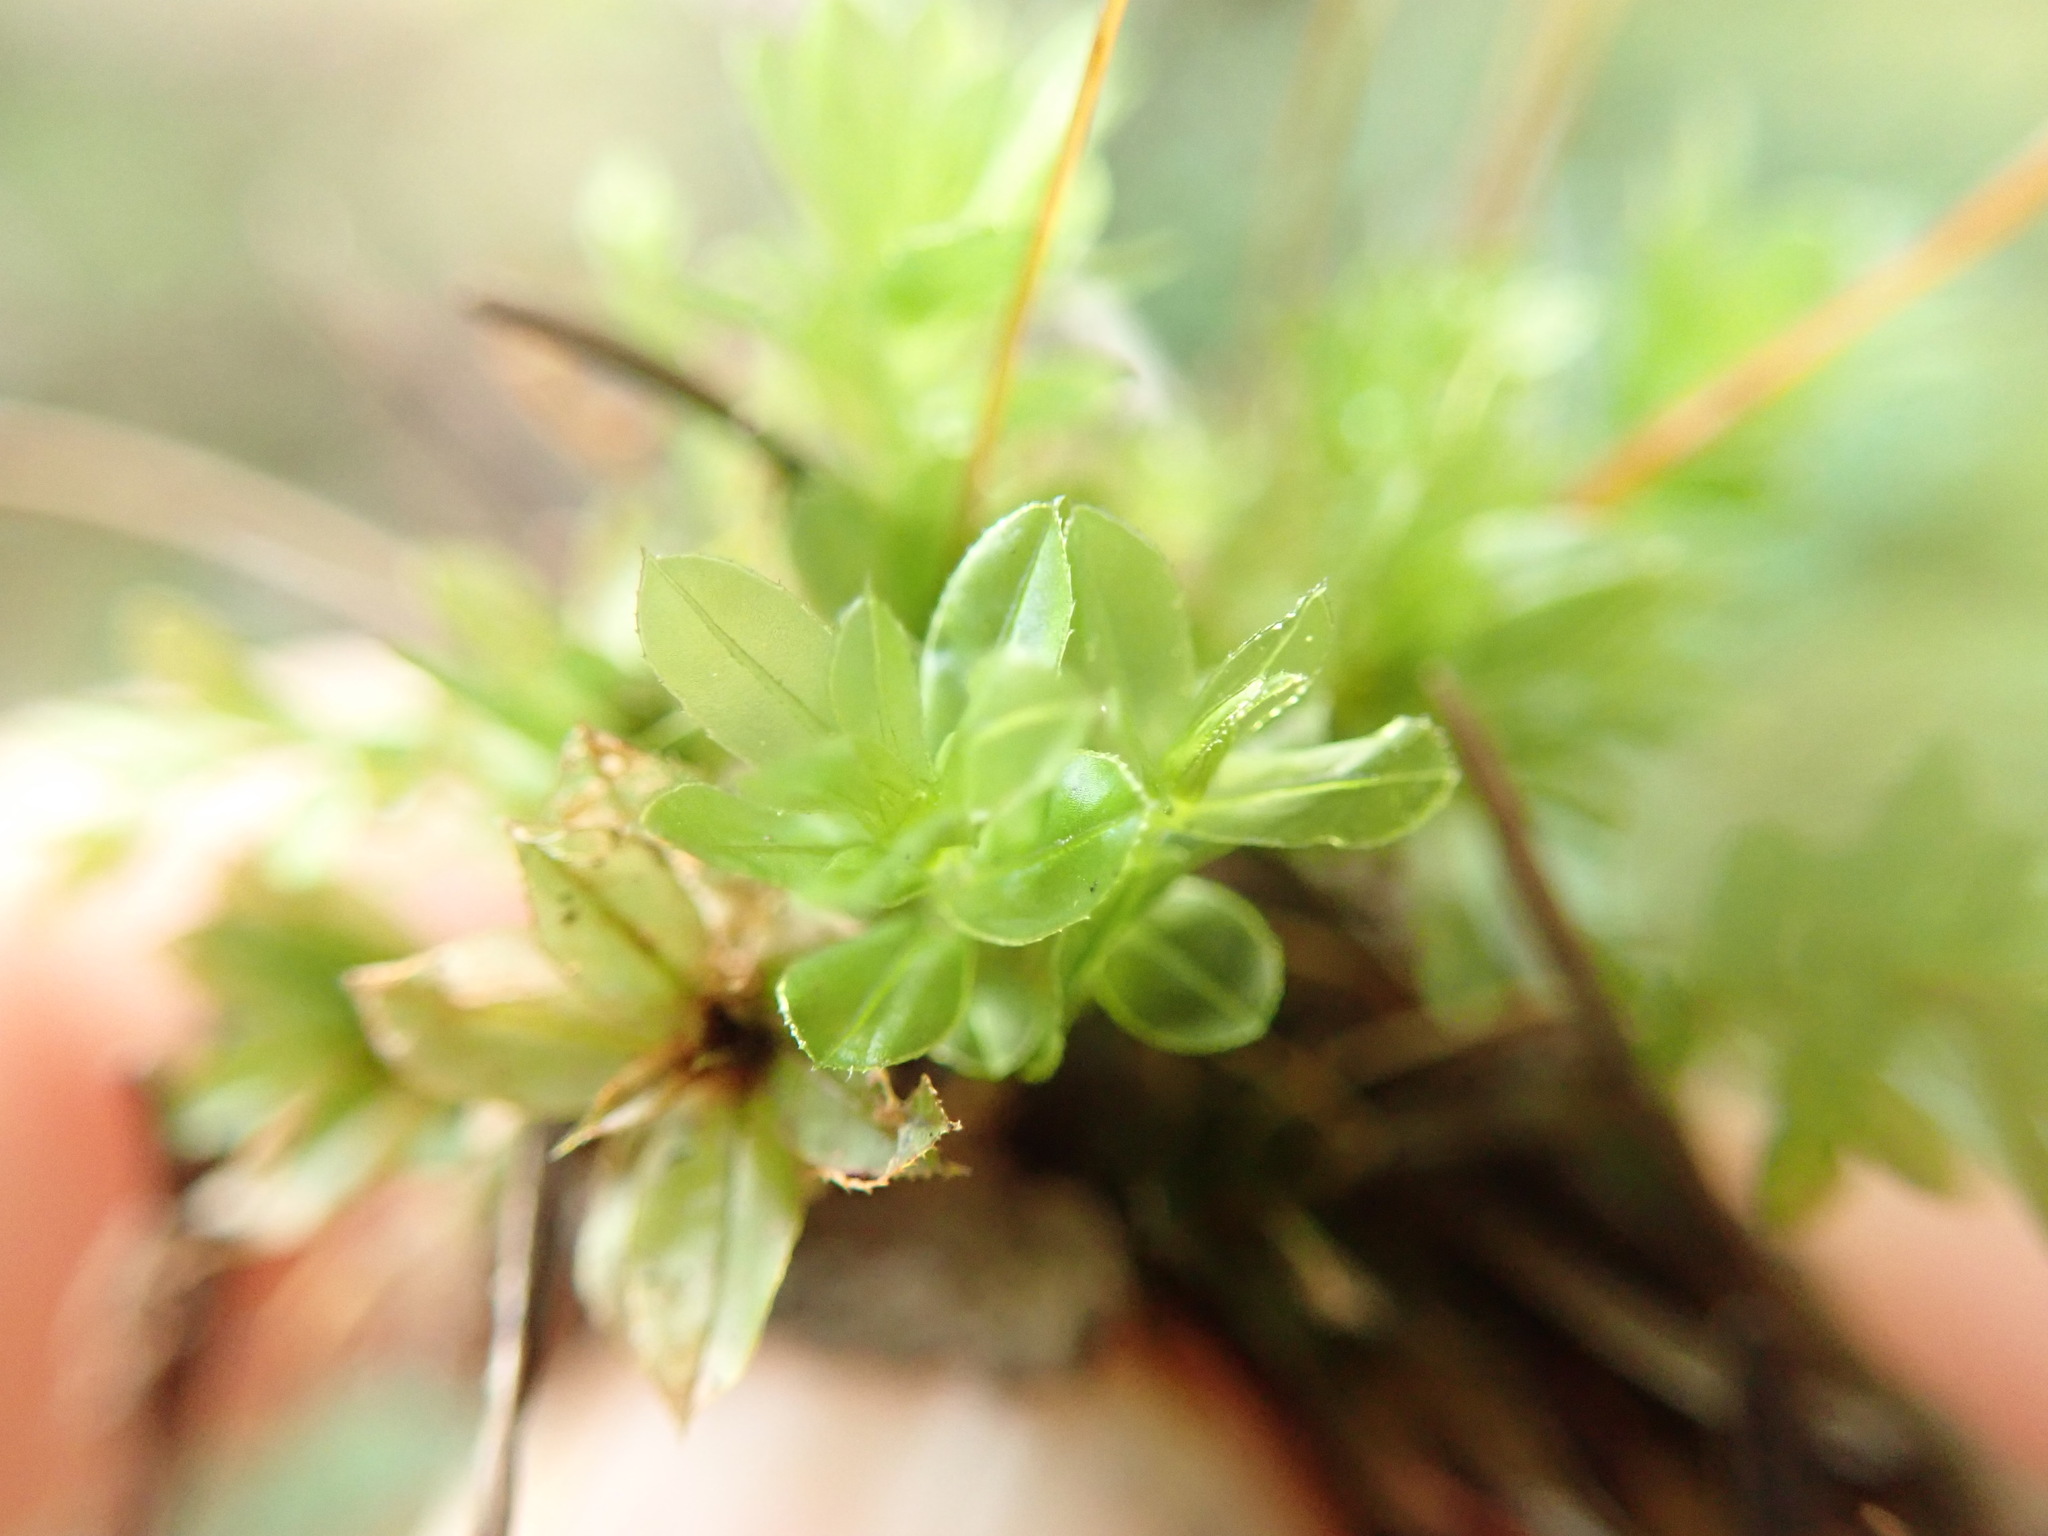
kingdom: Plantae
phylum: Bryophyta
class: Bryopsida
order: Bryales
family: Mniaceae
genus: Mnium
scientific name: Mnium spinulosum
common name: Red-mouthed leafy moss
